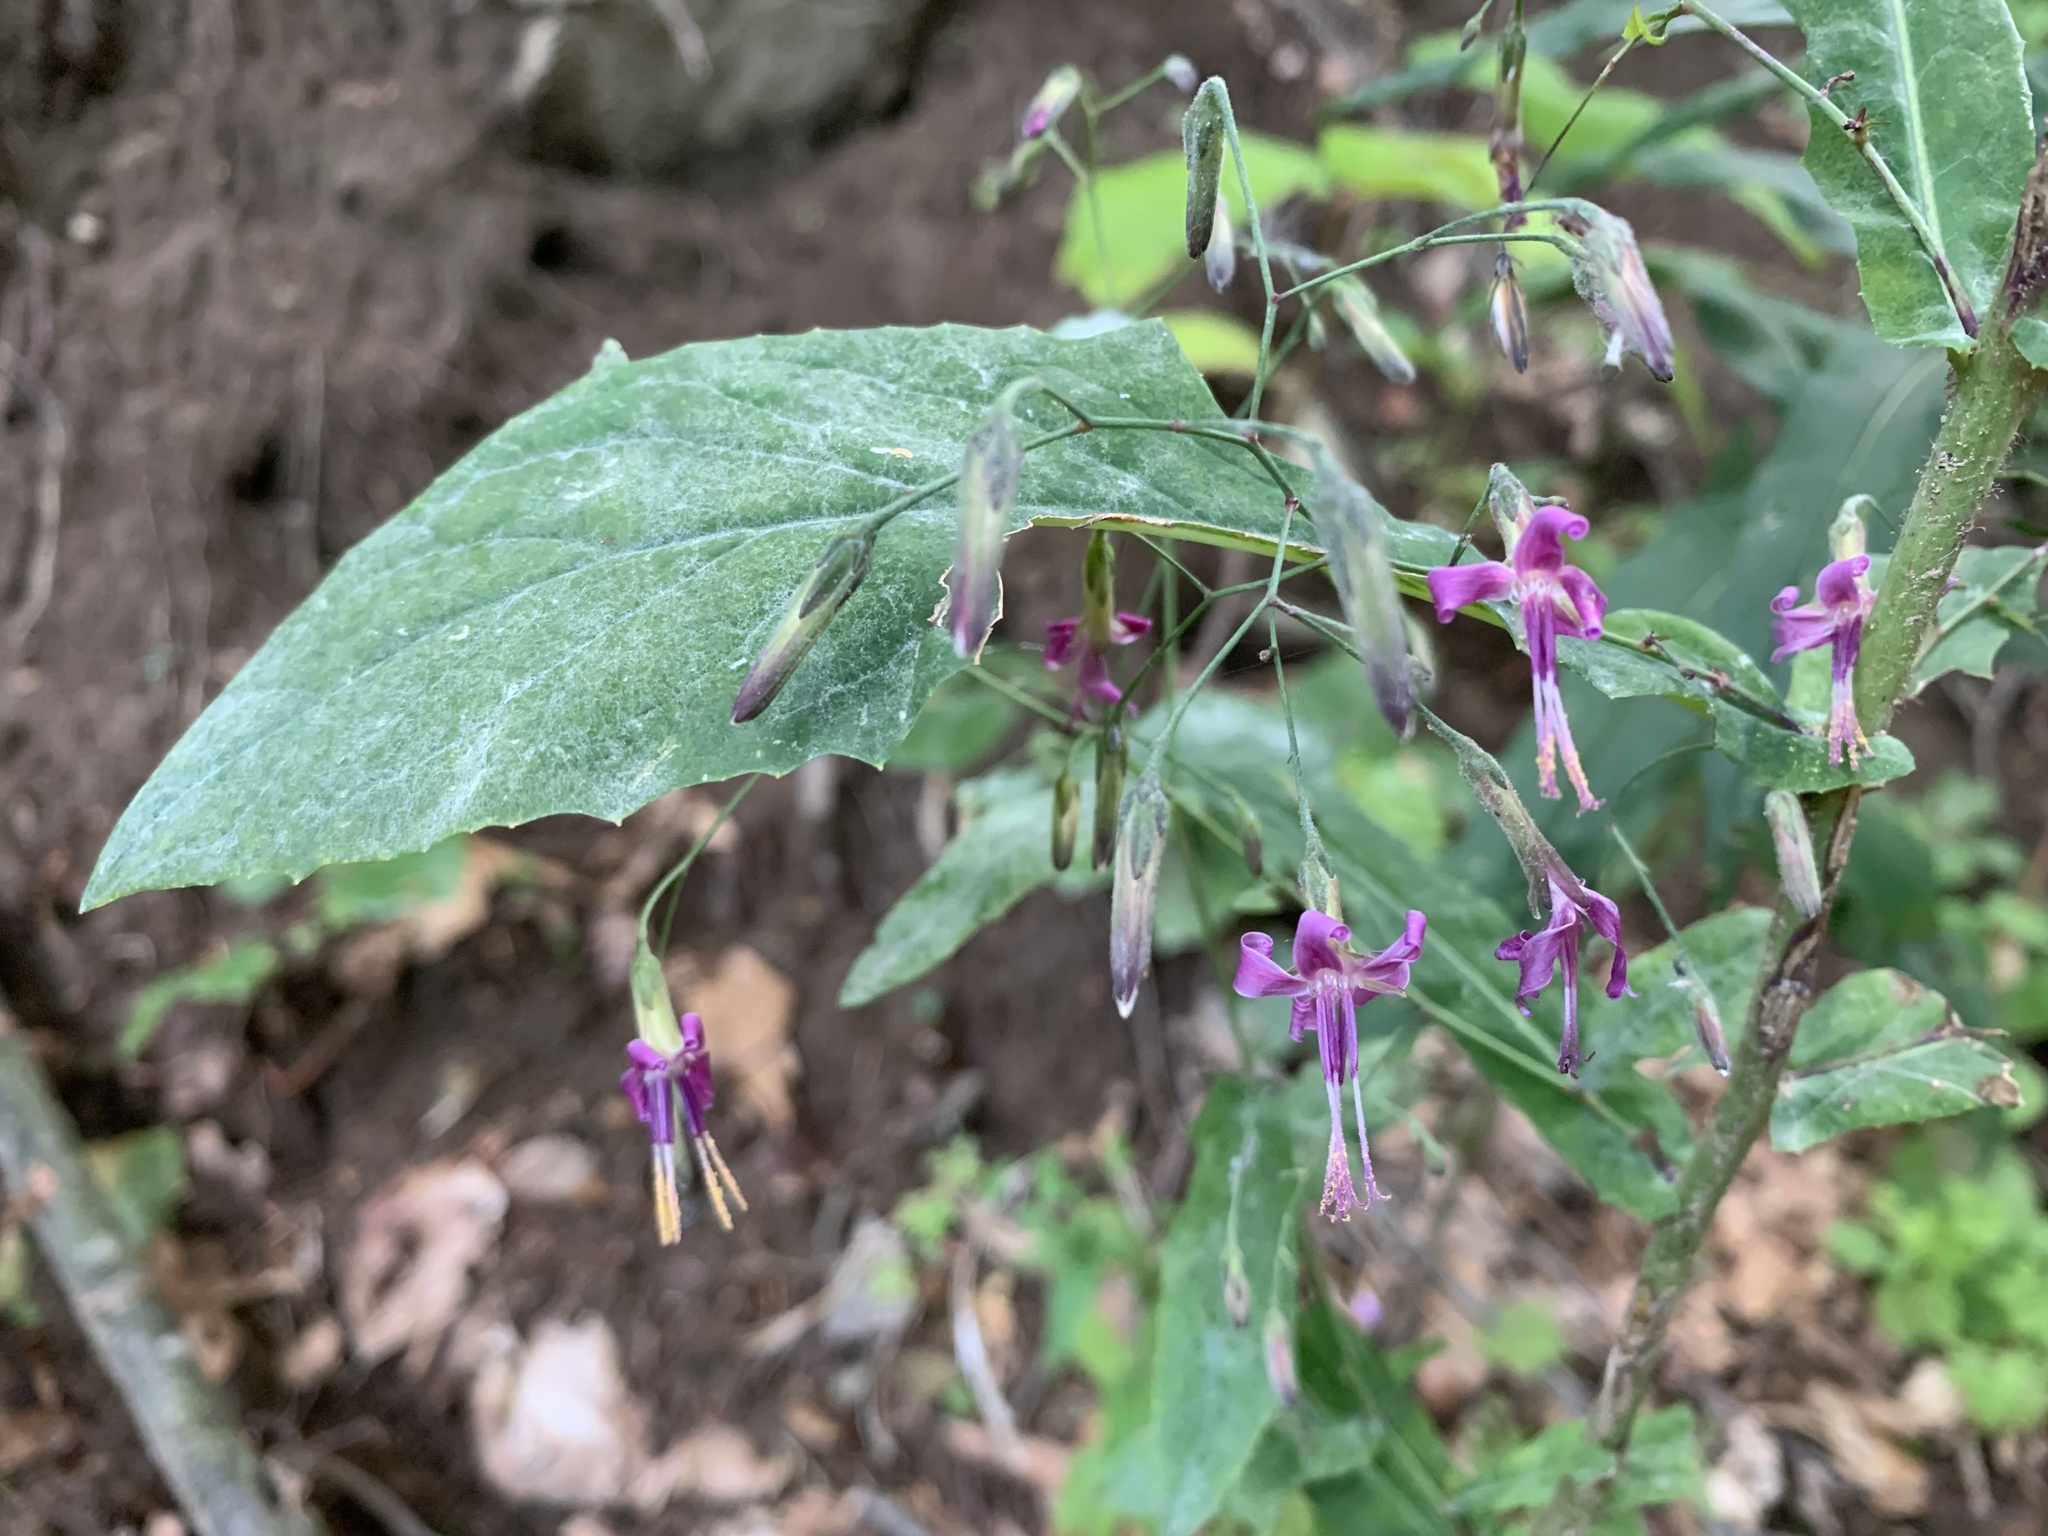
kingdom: Plantae
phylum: Tracheophyta
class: Magnoliopsida
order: Asterales
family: Asteraceae
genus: Prenanthes
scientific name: Prenanthes purpurea
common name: Purple lettuce
